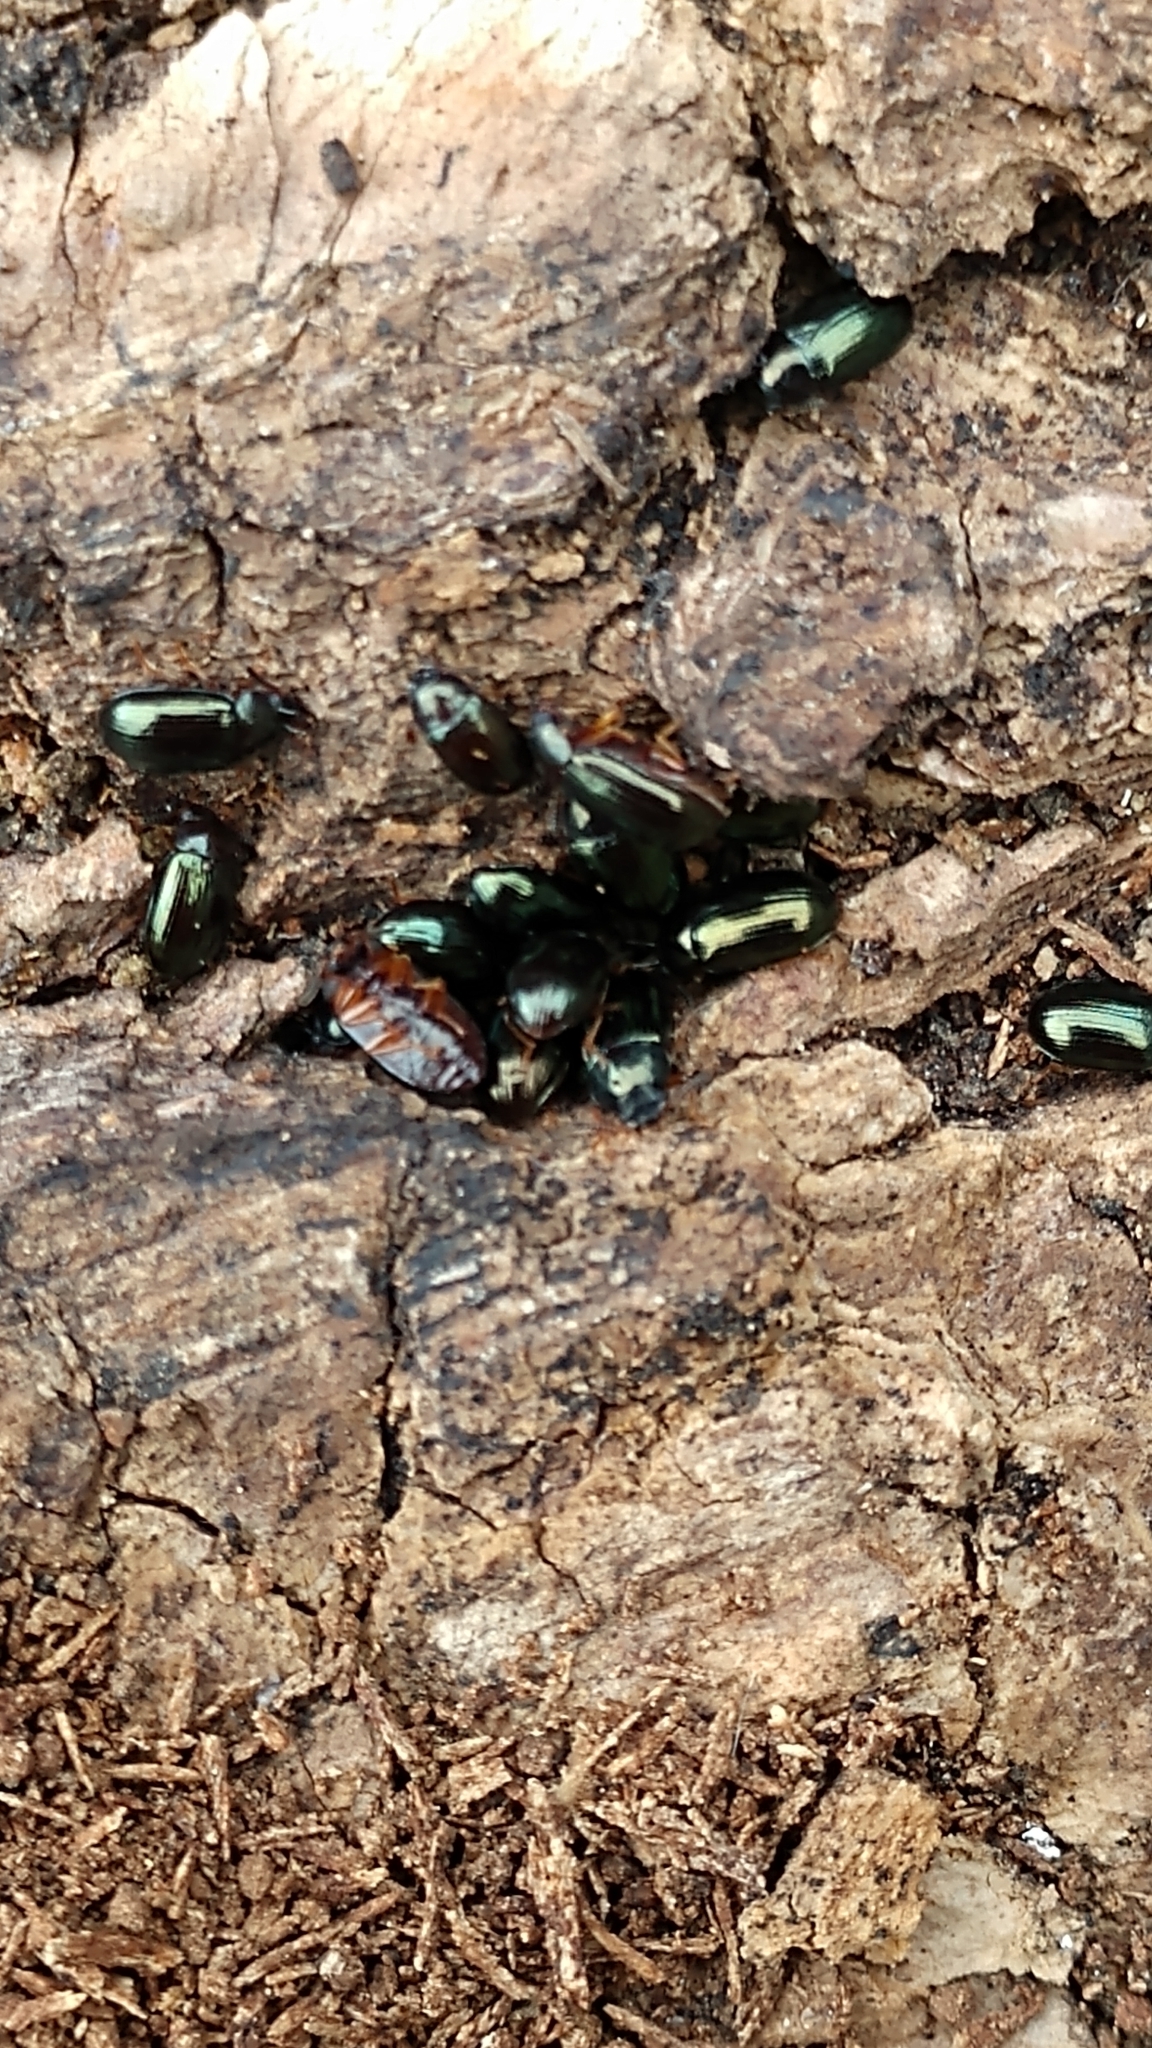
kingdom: Animalia
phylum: Arthropoda
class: Insecta
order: Coleoptera
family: Tenebrionidae
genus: Neomida
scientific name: Neomida bicornis
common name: Two-horned darkling beetle
